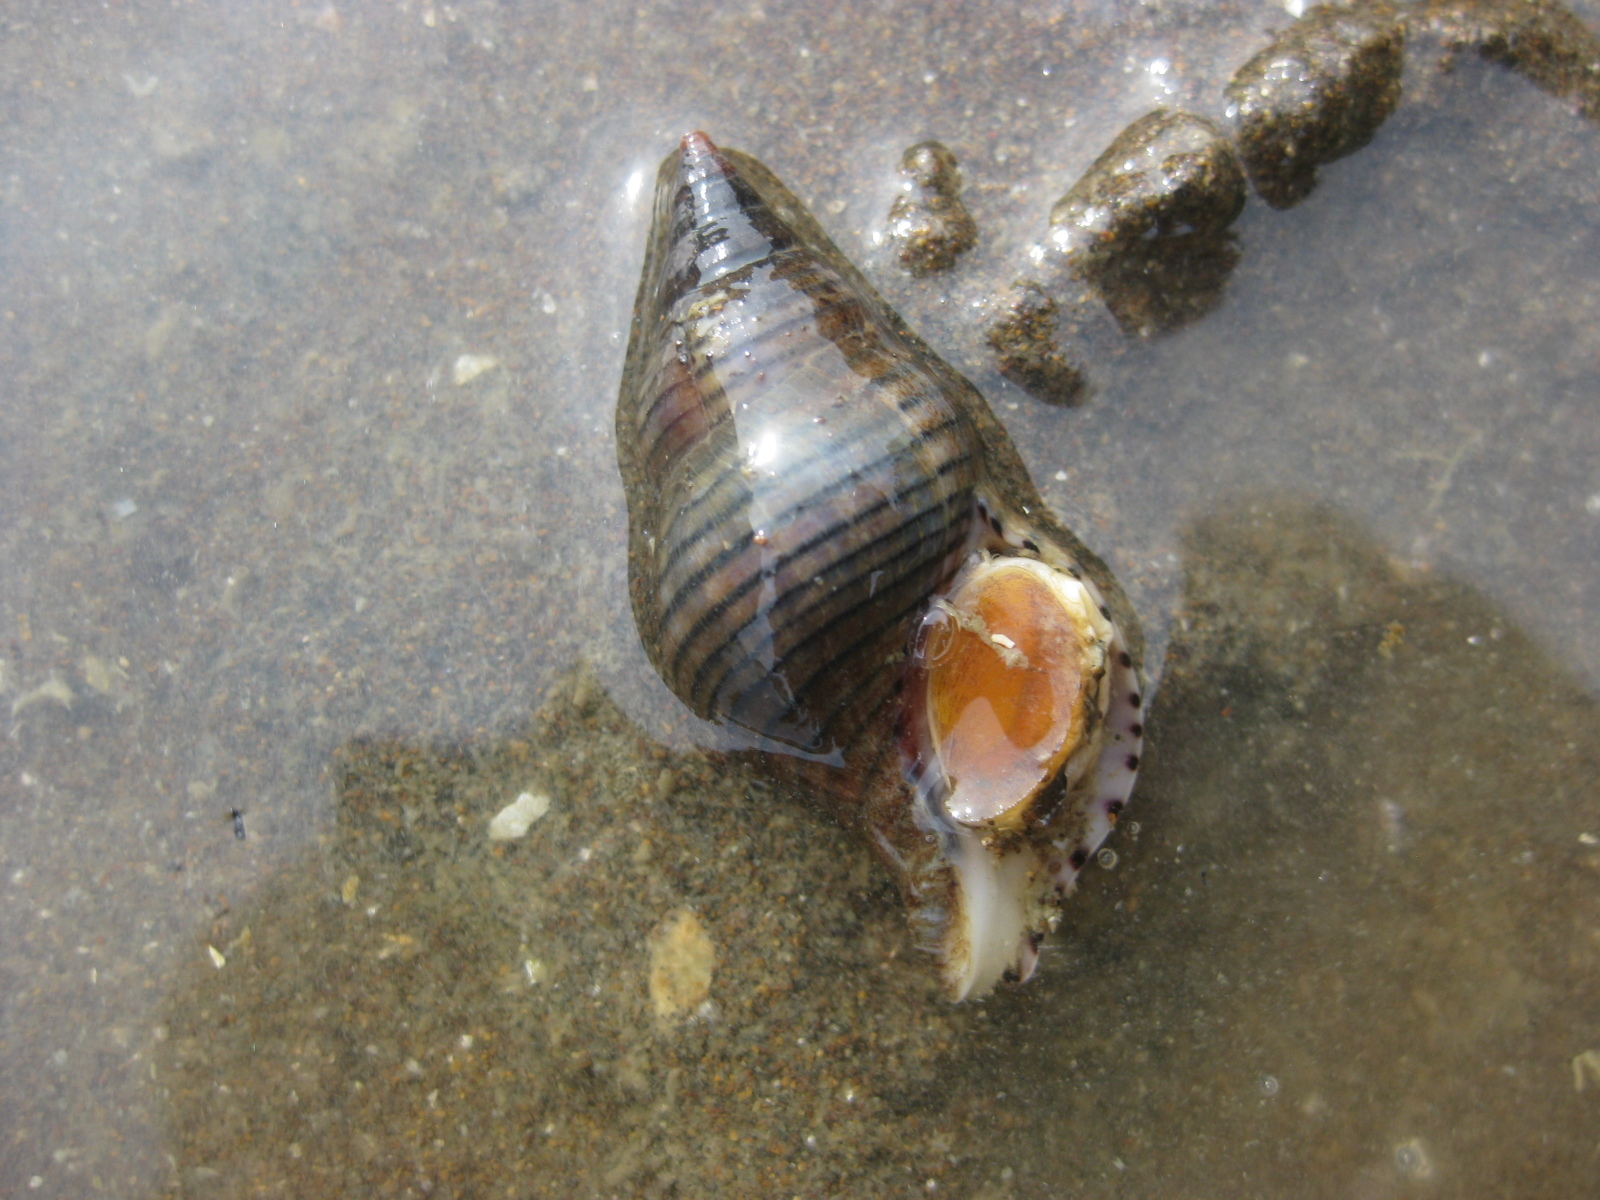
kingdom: Animalia
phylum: Mollusca
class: Gastropoda
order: Neogastropoda
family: Tudiclidae
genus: Buccinulum
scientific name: Buccinulum linea
